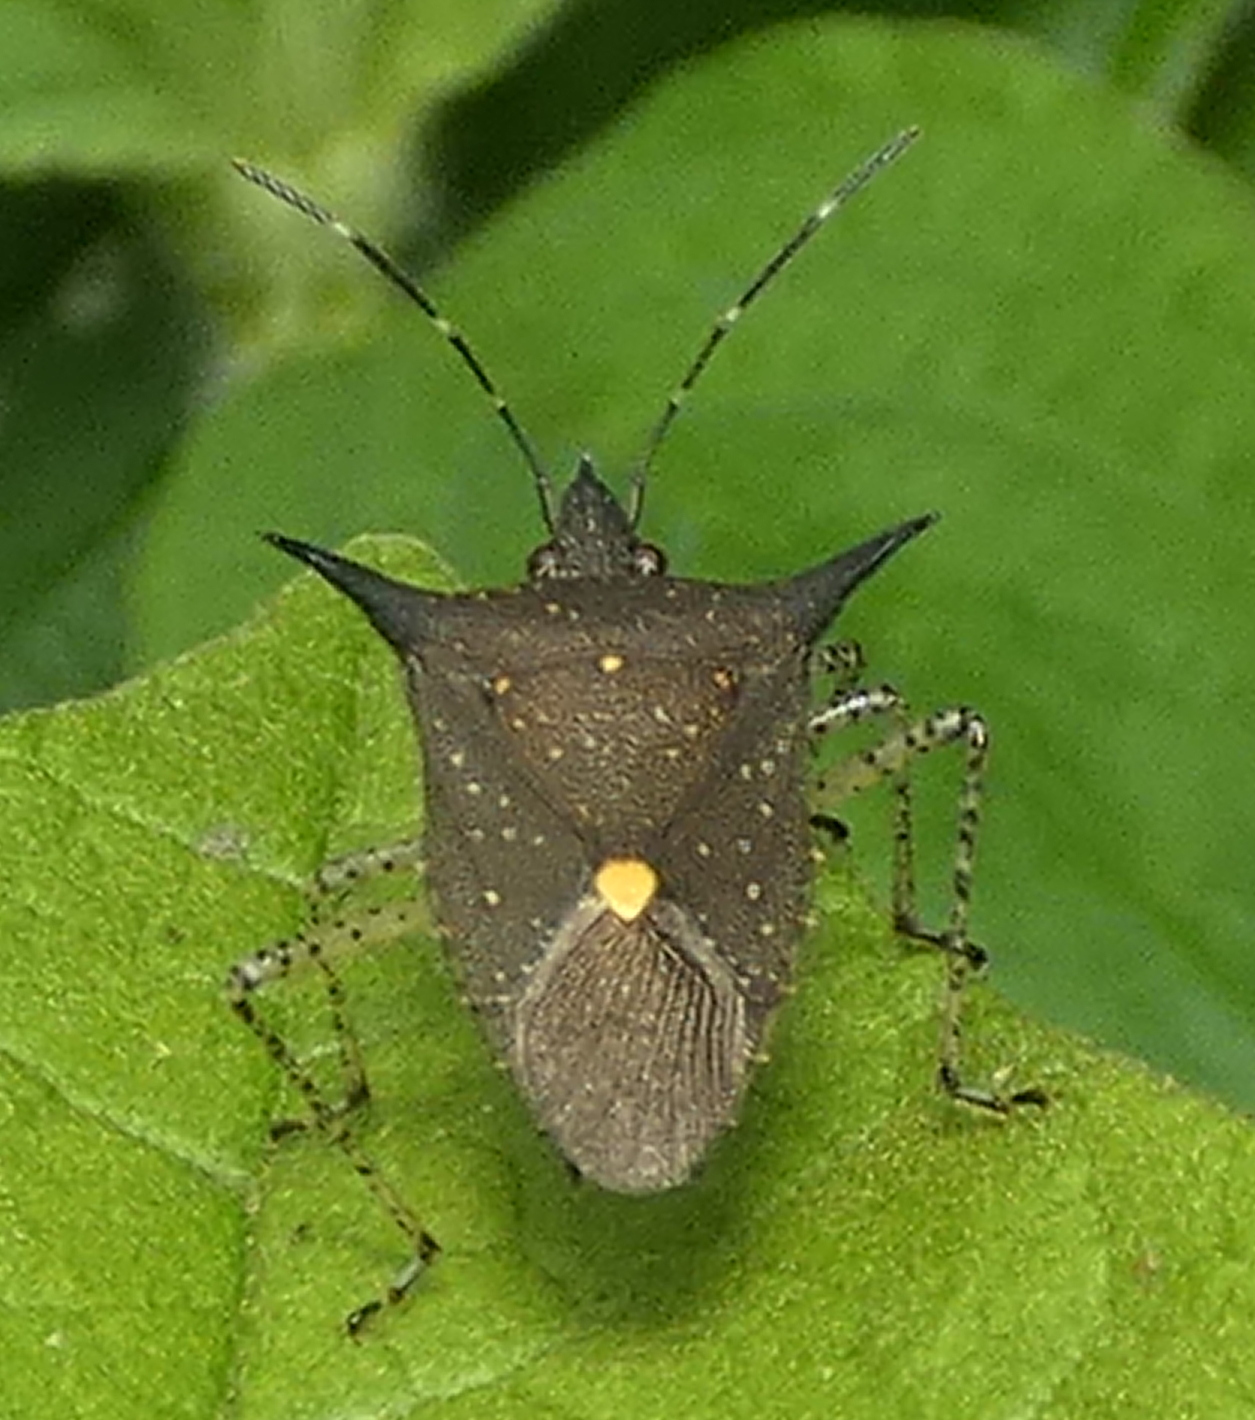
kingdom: Animalia
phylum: Arthropoda
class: Insecta
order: Hemiptera
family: Pentatomidae
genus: Proxys
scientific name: Proxys albopunctulatus
